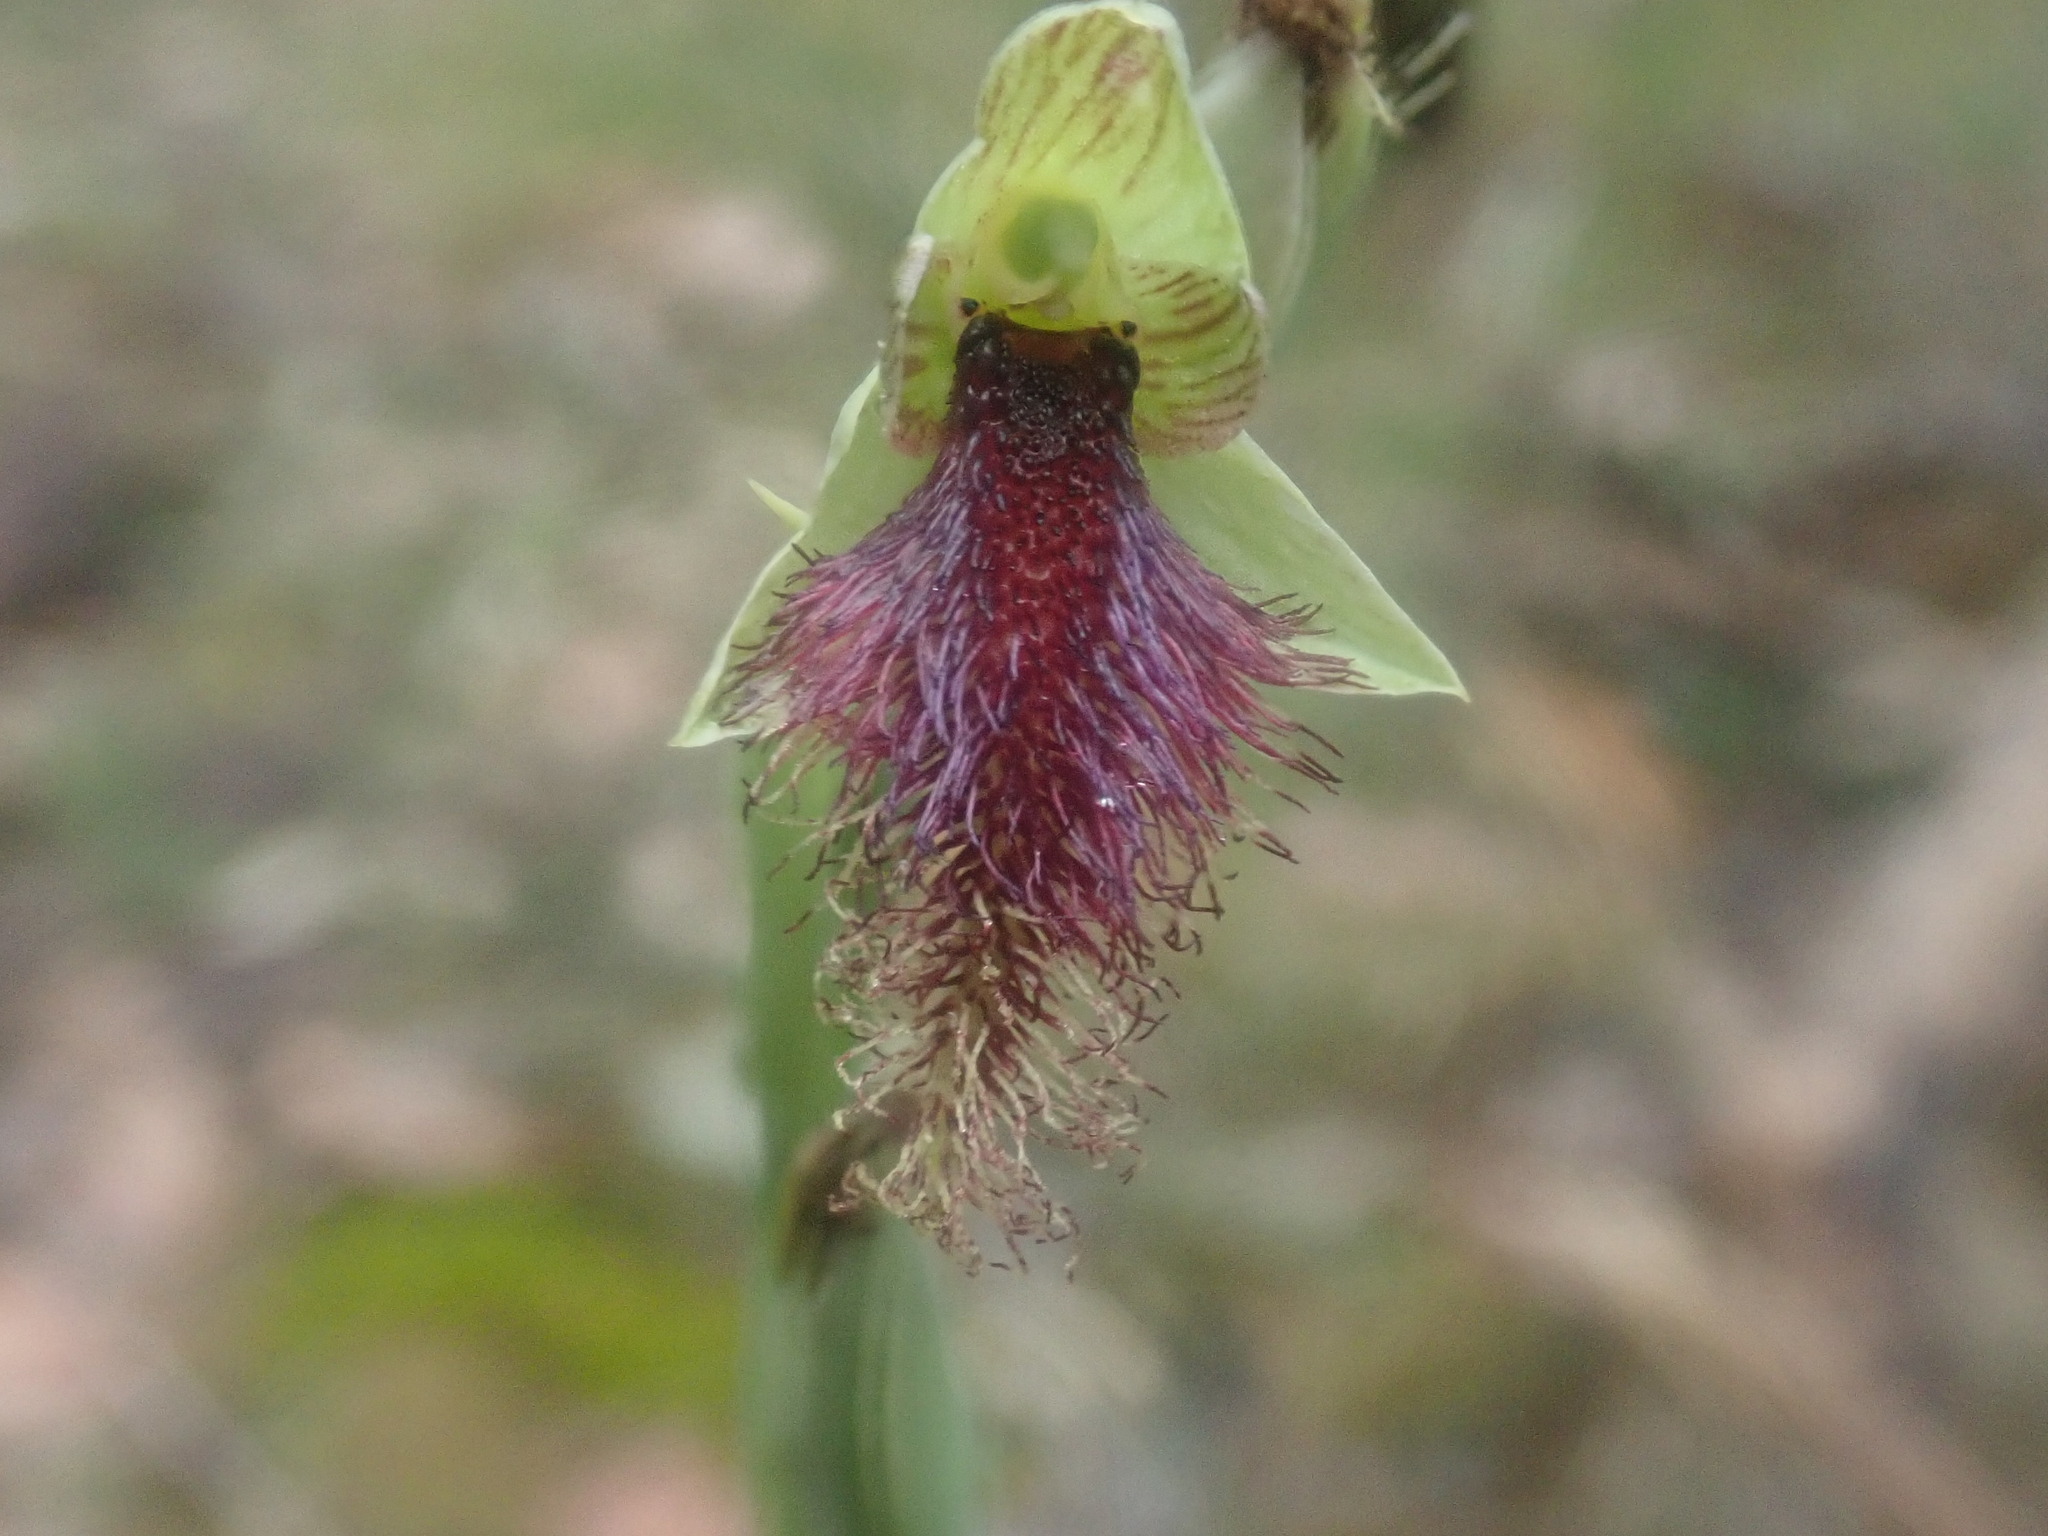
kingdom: Plantae
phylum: Tracheophyta
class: Liliopsida
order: Asparagales
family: Orchidaceae
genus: Calochilus
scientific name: Calochilus robertsonii
